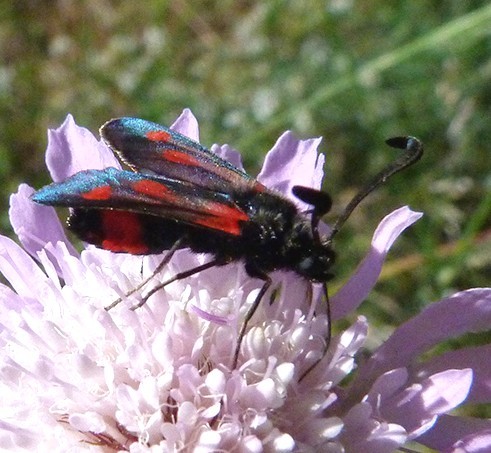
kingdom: Animalia
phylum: Arthropoda
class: Insecta
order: Lepidoptera
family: Zygaenidae
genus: Zygaena
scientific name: Zygaena sarpedon
